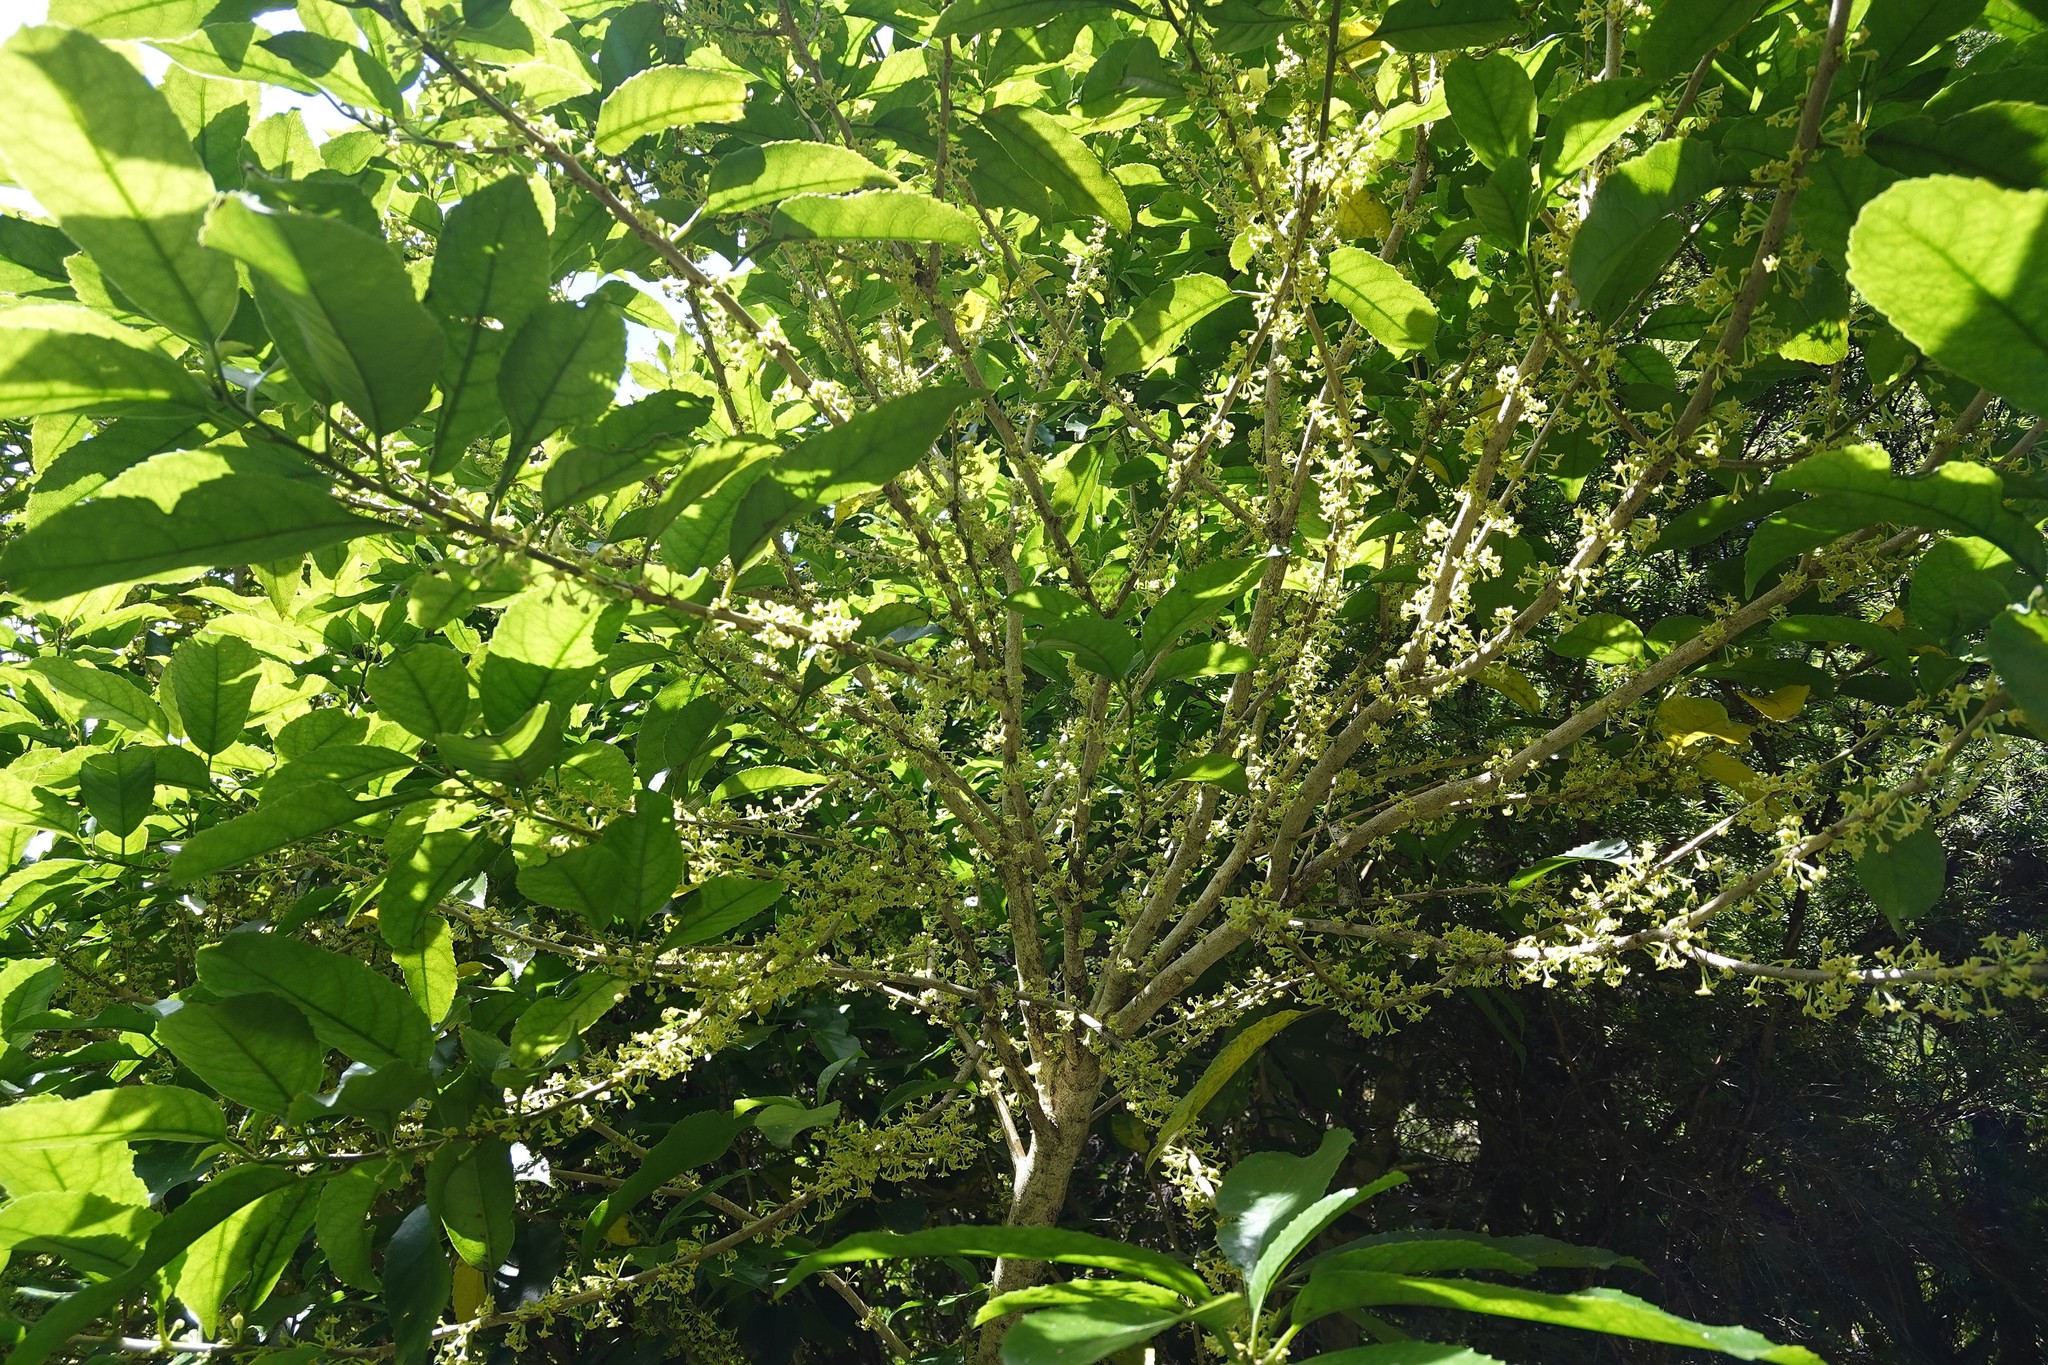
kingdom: Plantae
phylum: Tracheophyta
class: Magnoliopsida
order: Malpighiales
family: Violaceae
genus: Melicytus
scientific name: Melicytus ramiflorus
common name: Mahoe
